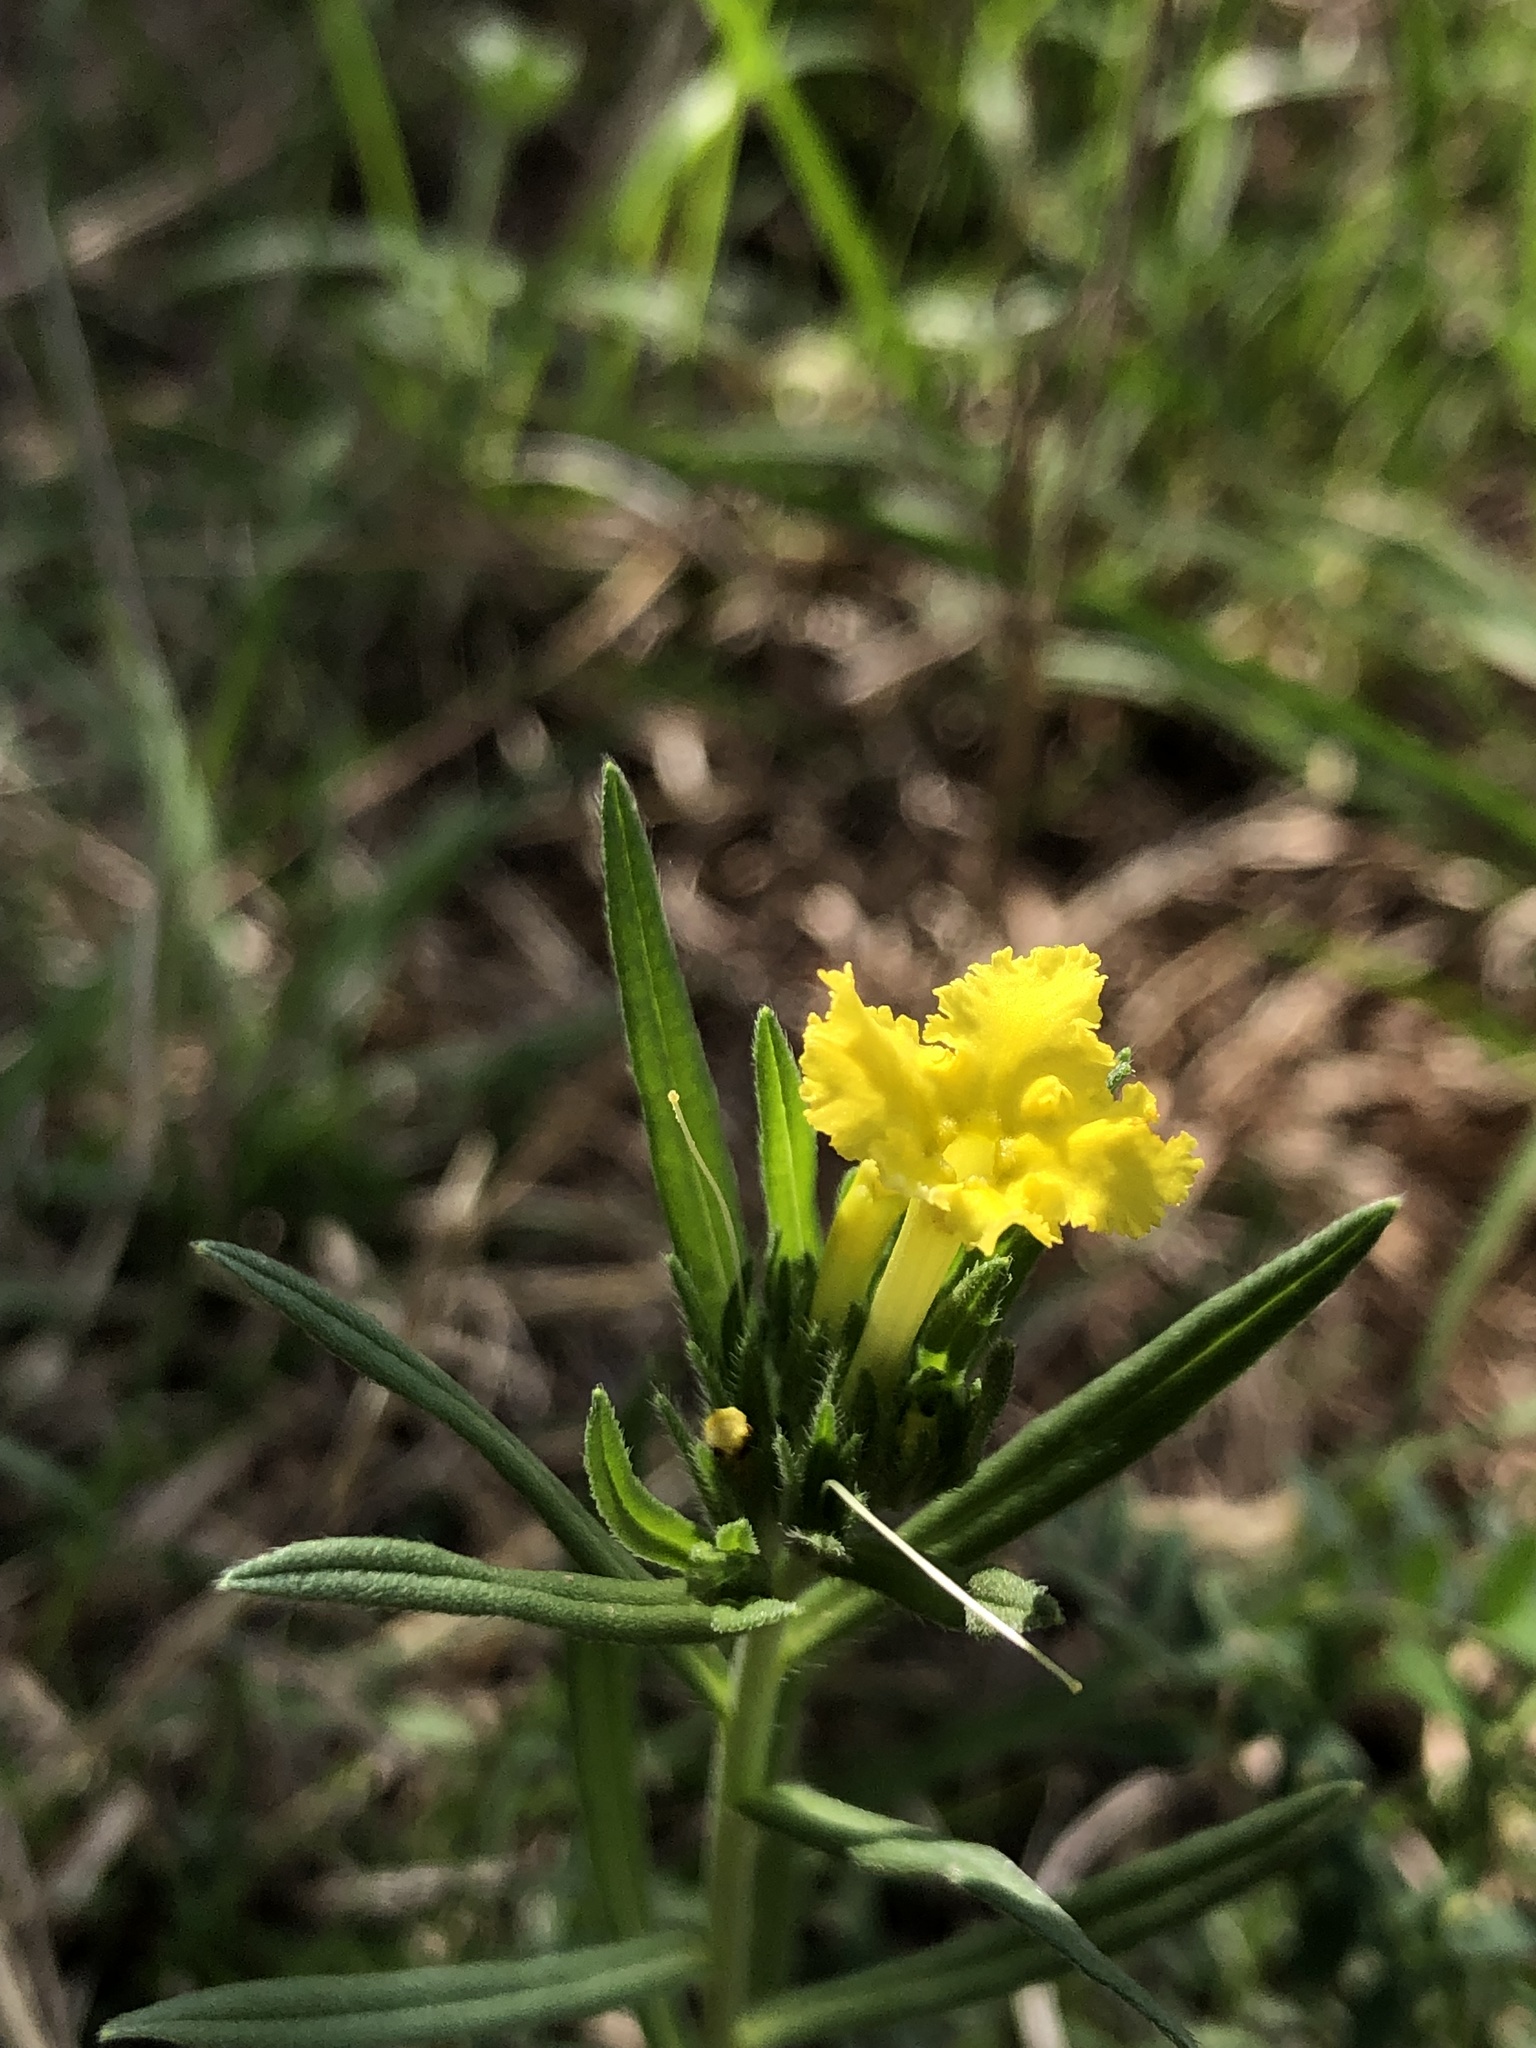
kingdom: Plantae
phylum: Tracheophyta
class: Magnoliopsida
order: Boraginales
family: Boraginaceae
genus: Lithospermum
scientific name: Lithospermum incisum
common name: Fringed gromwell
